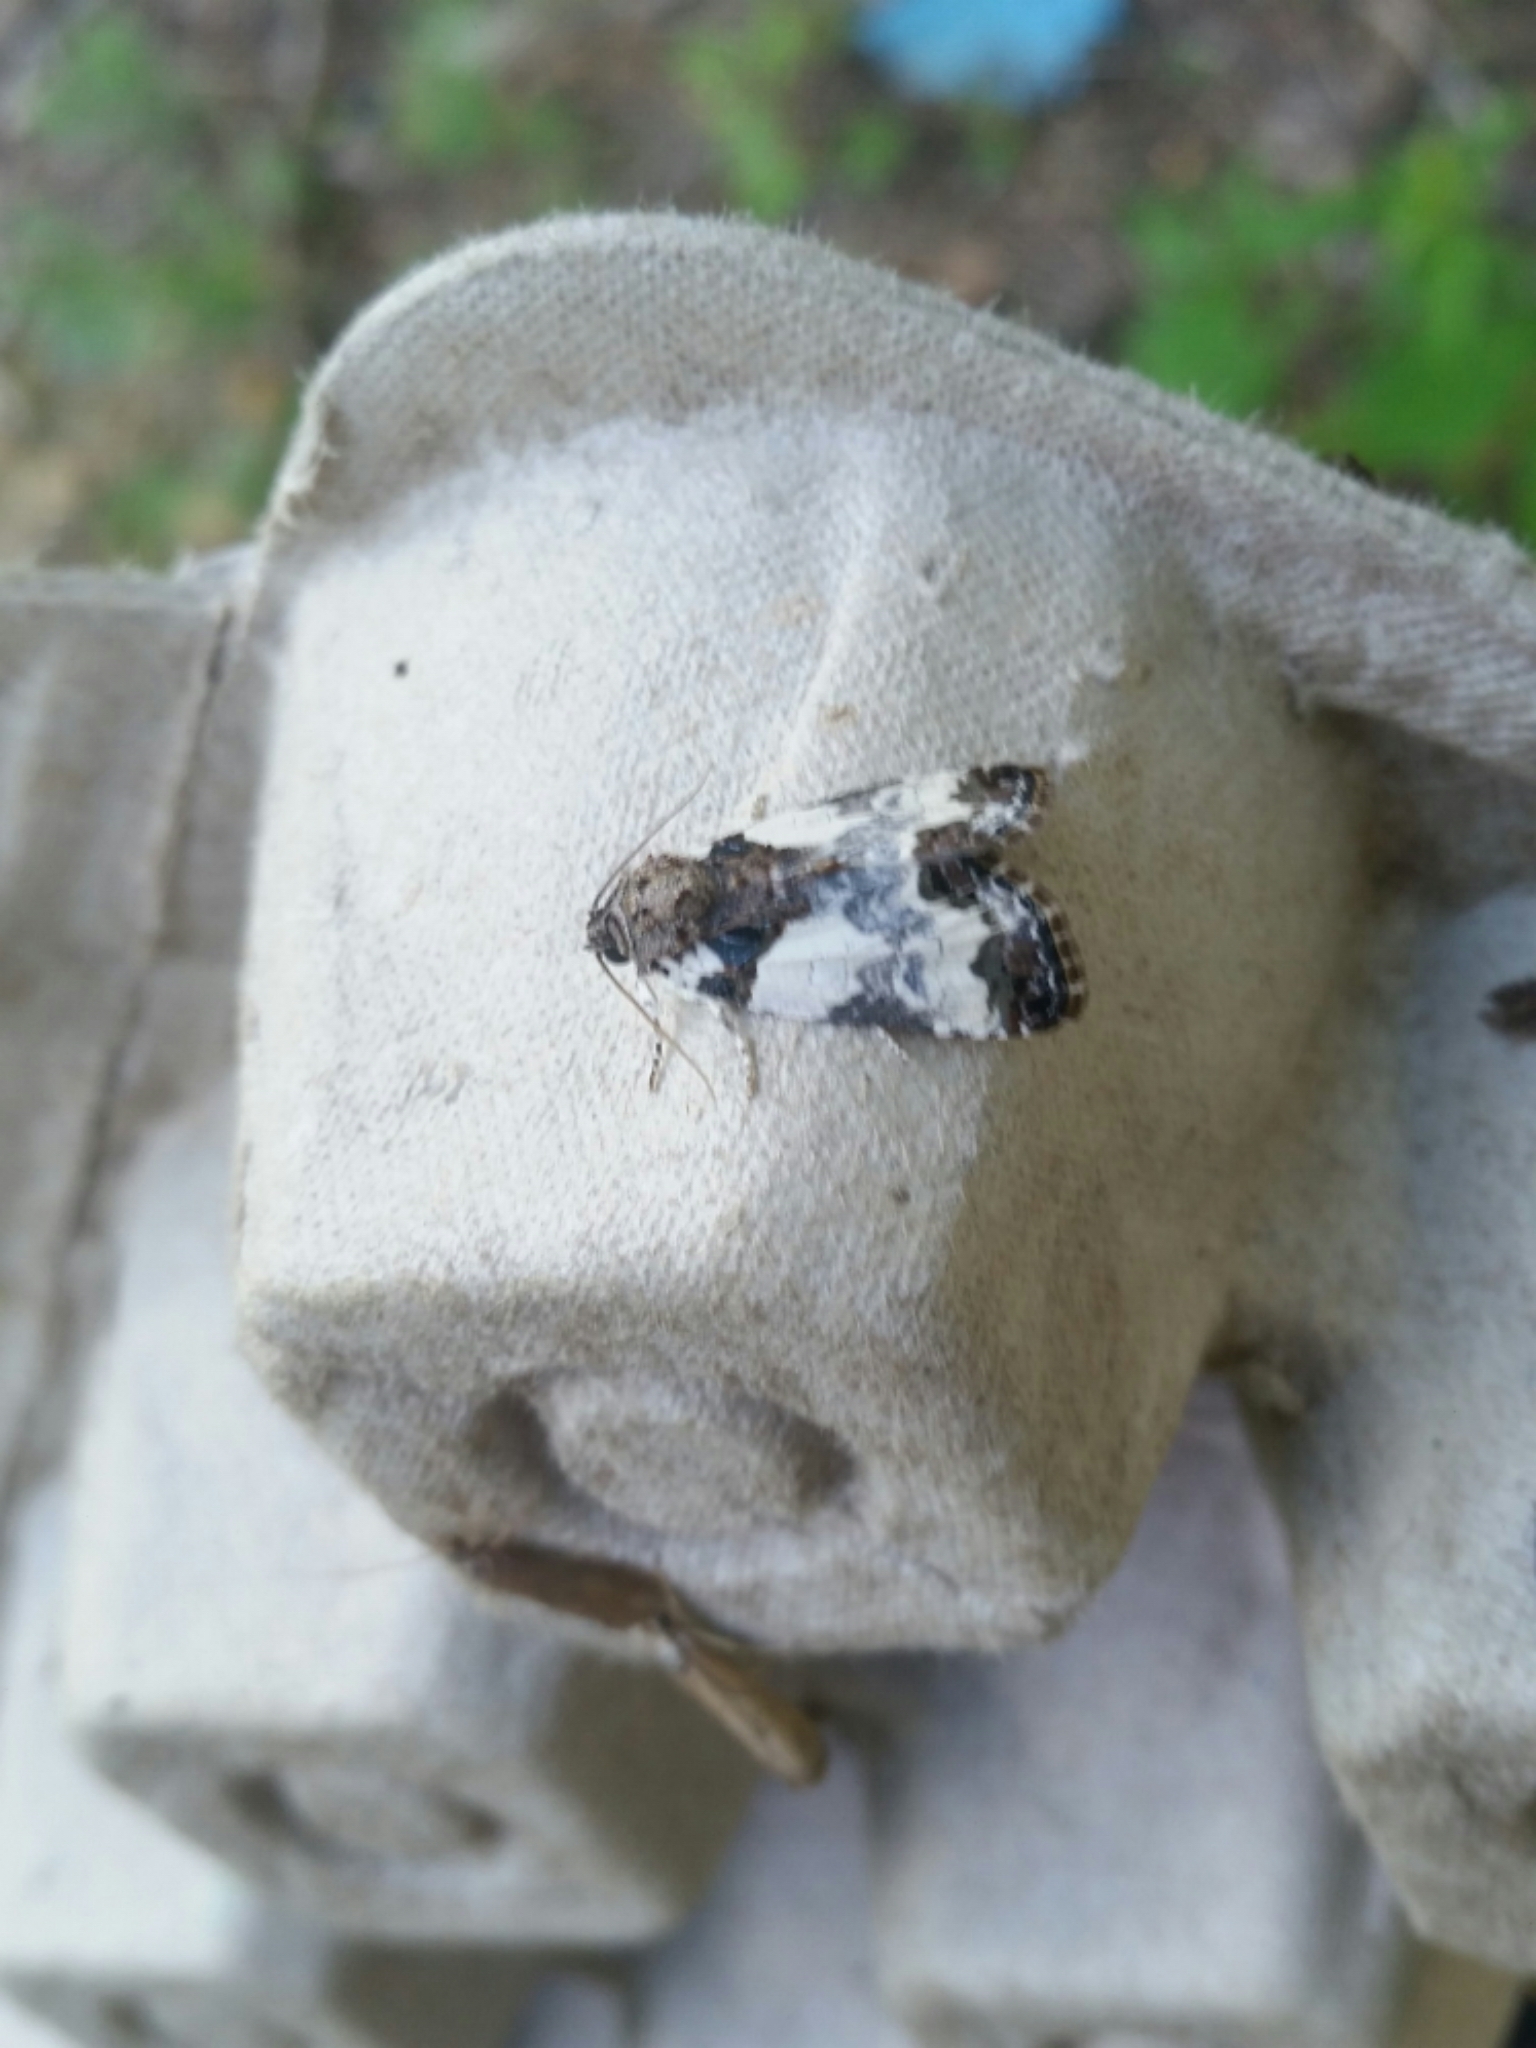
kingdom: Animalia
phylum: Arthropoda
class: Insecta
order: Lepidoptera
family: Noctuidae
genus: Cerma
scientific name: Cerma cerintha
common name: Tufted bird-dropping moth
